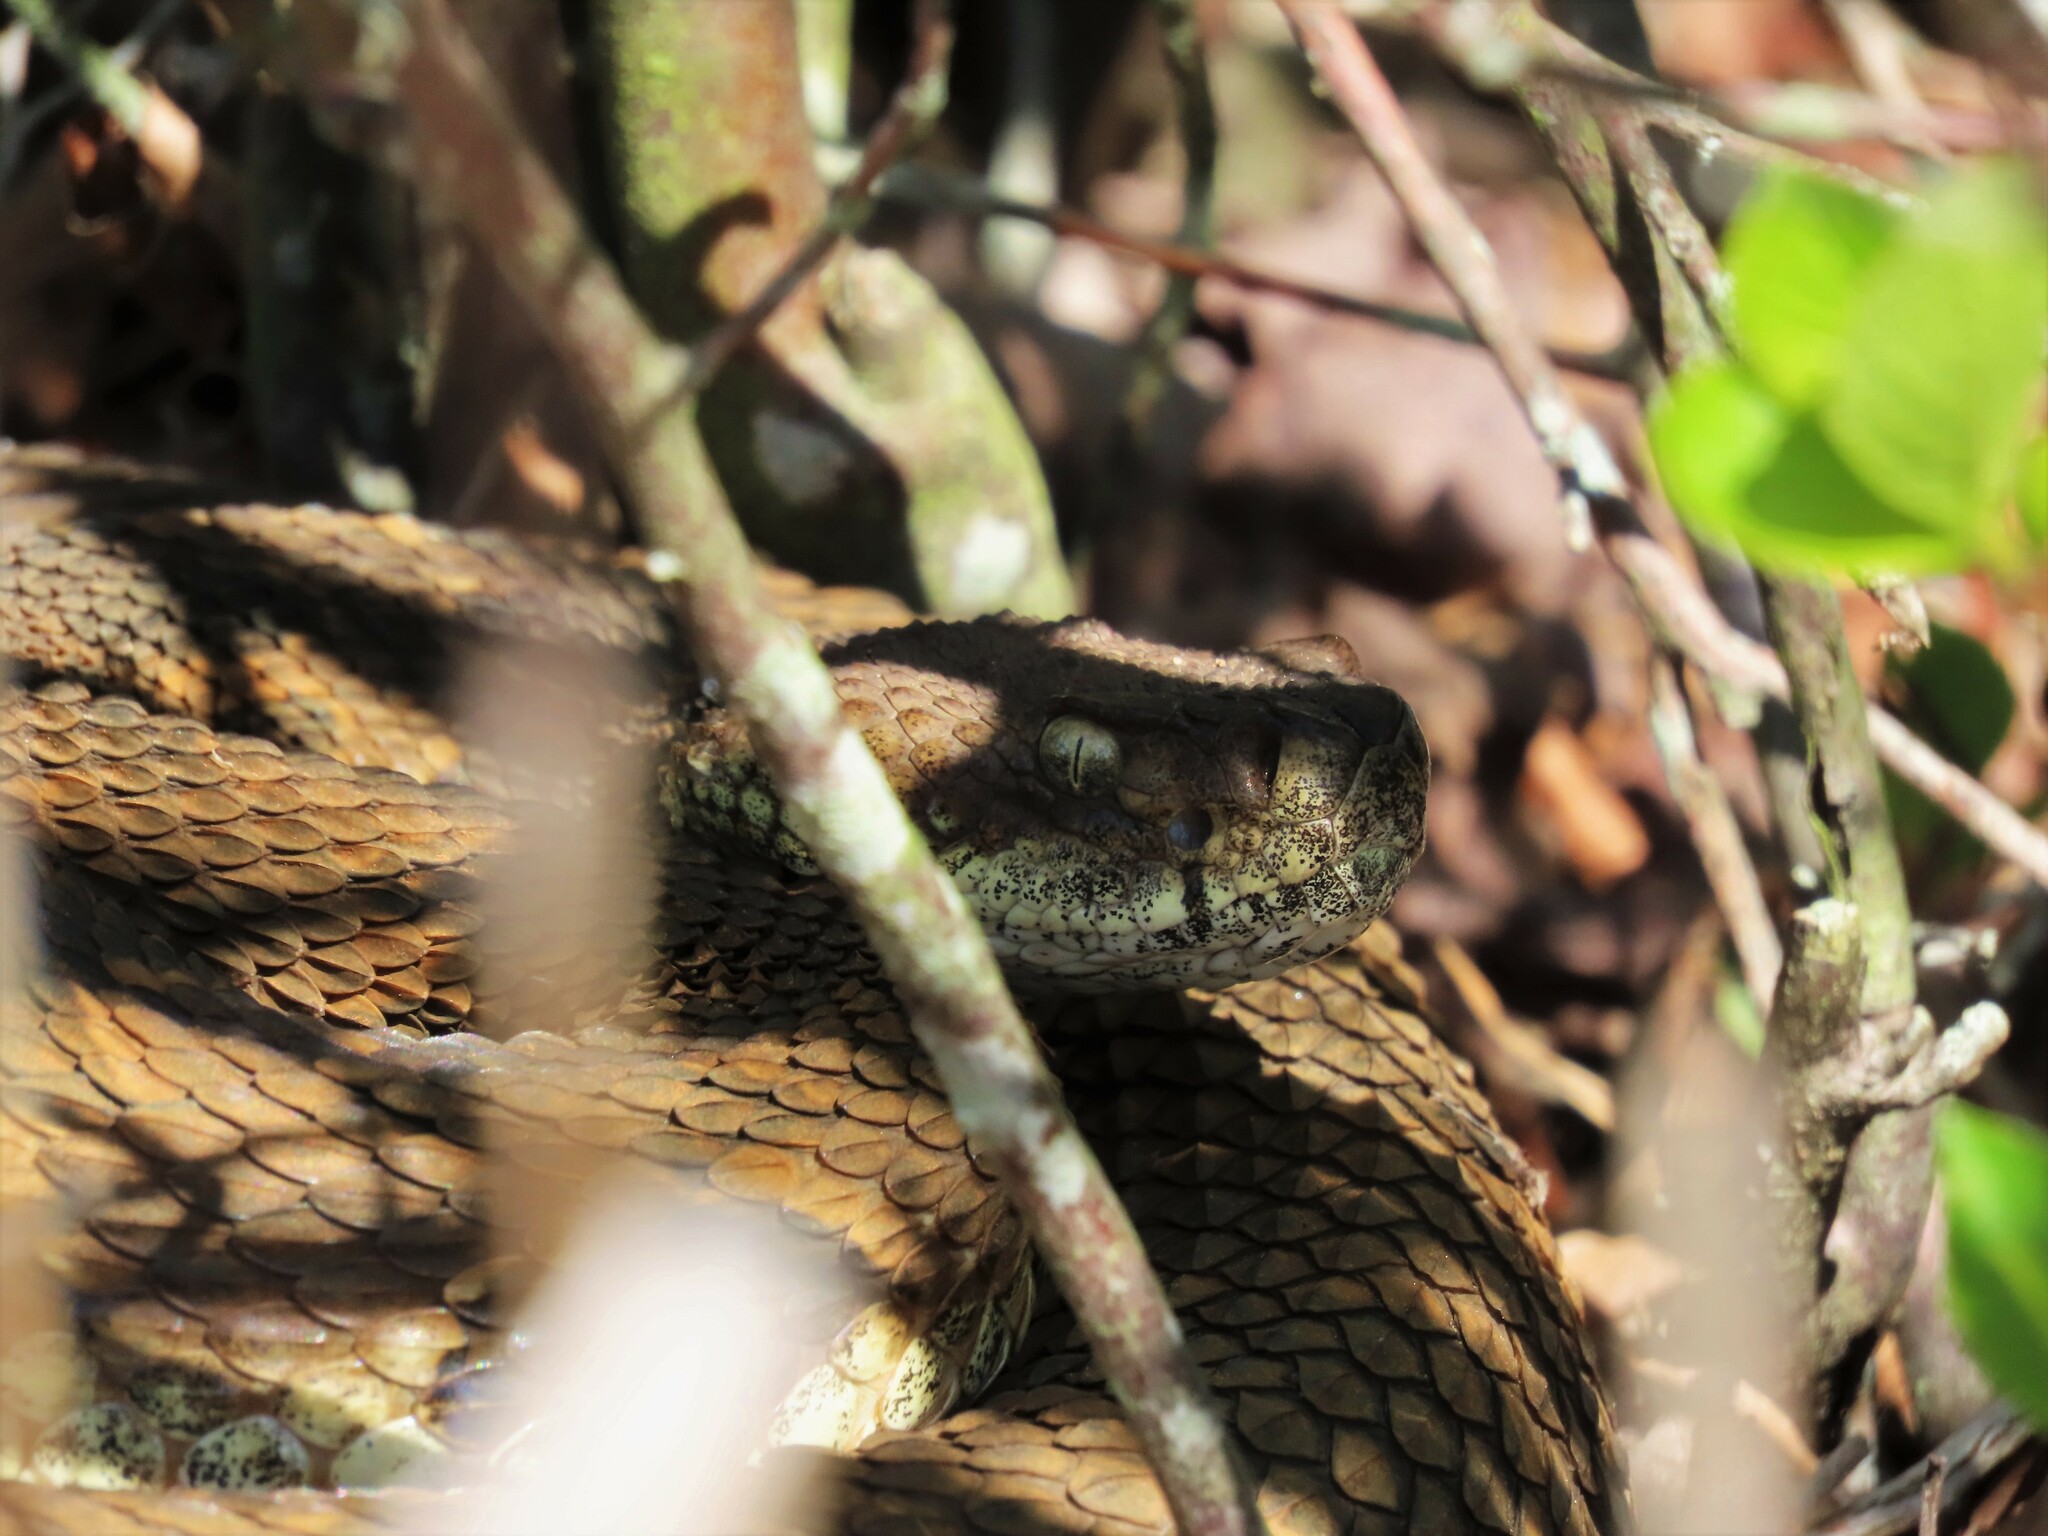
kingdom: Animalia
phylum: Chordata
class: Squamata
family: Viperidae
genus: Crotalus
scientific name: Crotalus horridus
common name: Timber rattlesnake
